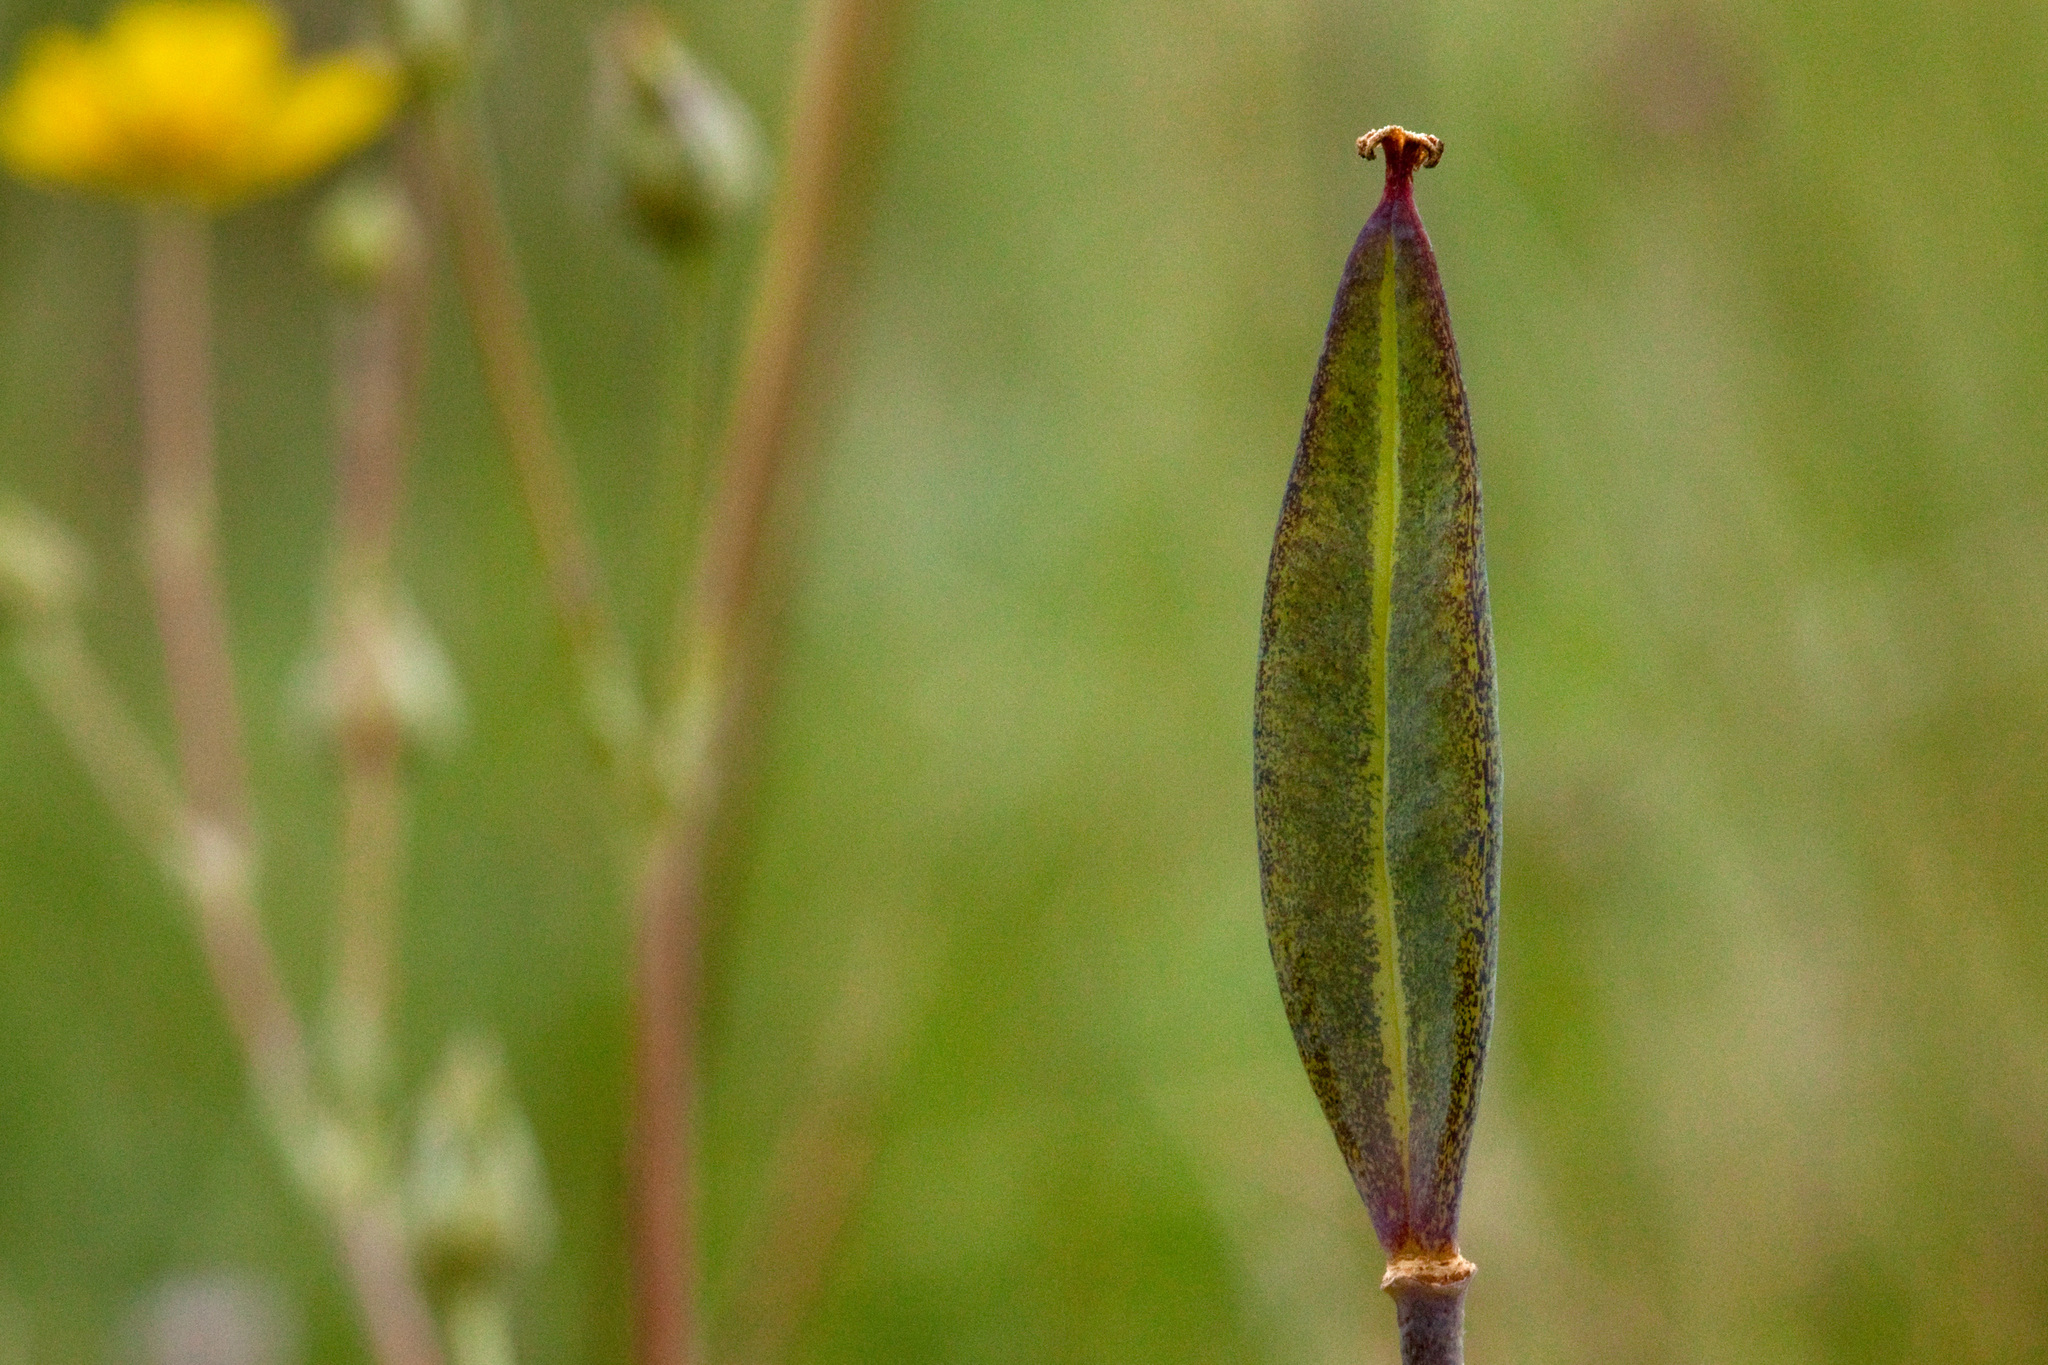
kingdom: Plantae
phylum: Tracheophyta
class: Liliopsida
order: Liliales
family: Liliaceae
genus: Calochortus
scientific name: Calochortus gunnisonii
